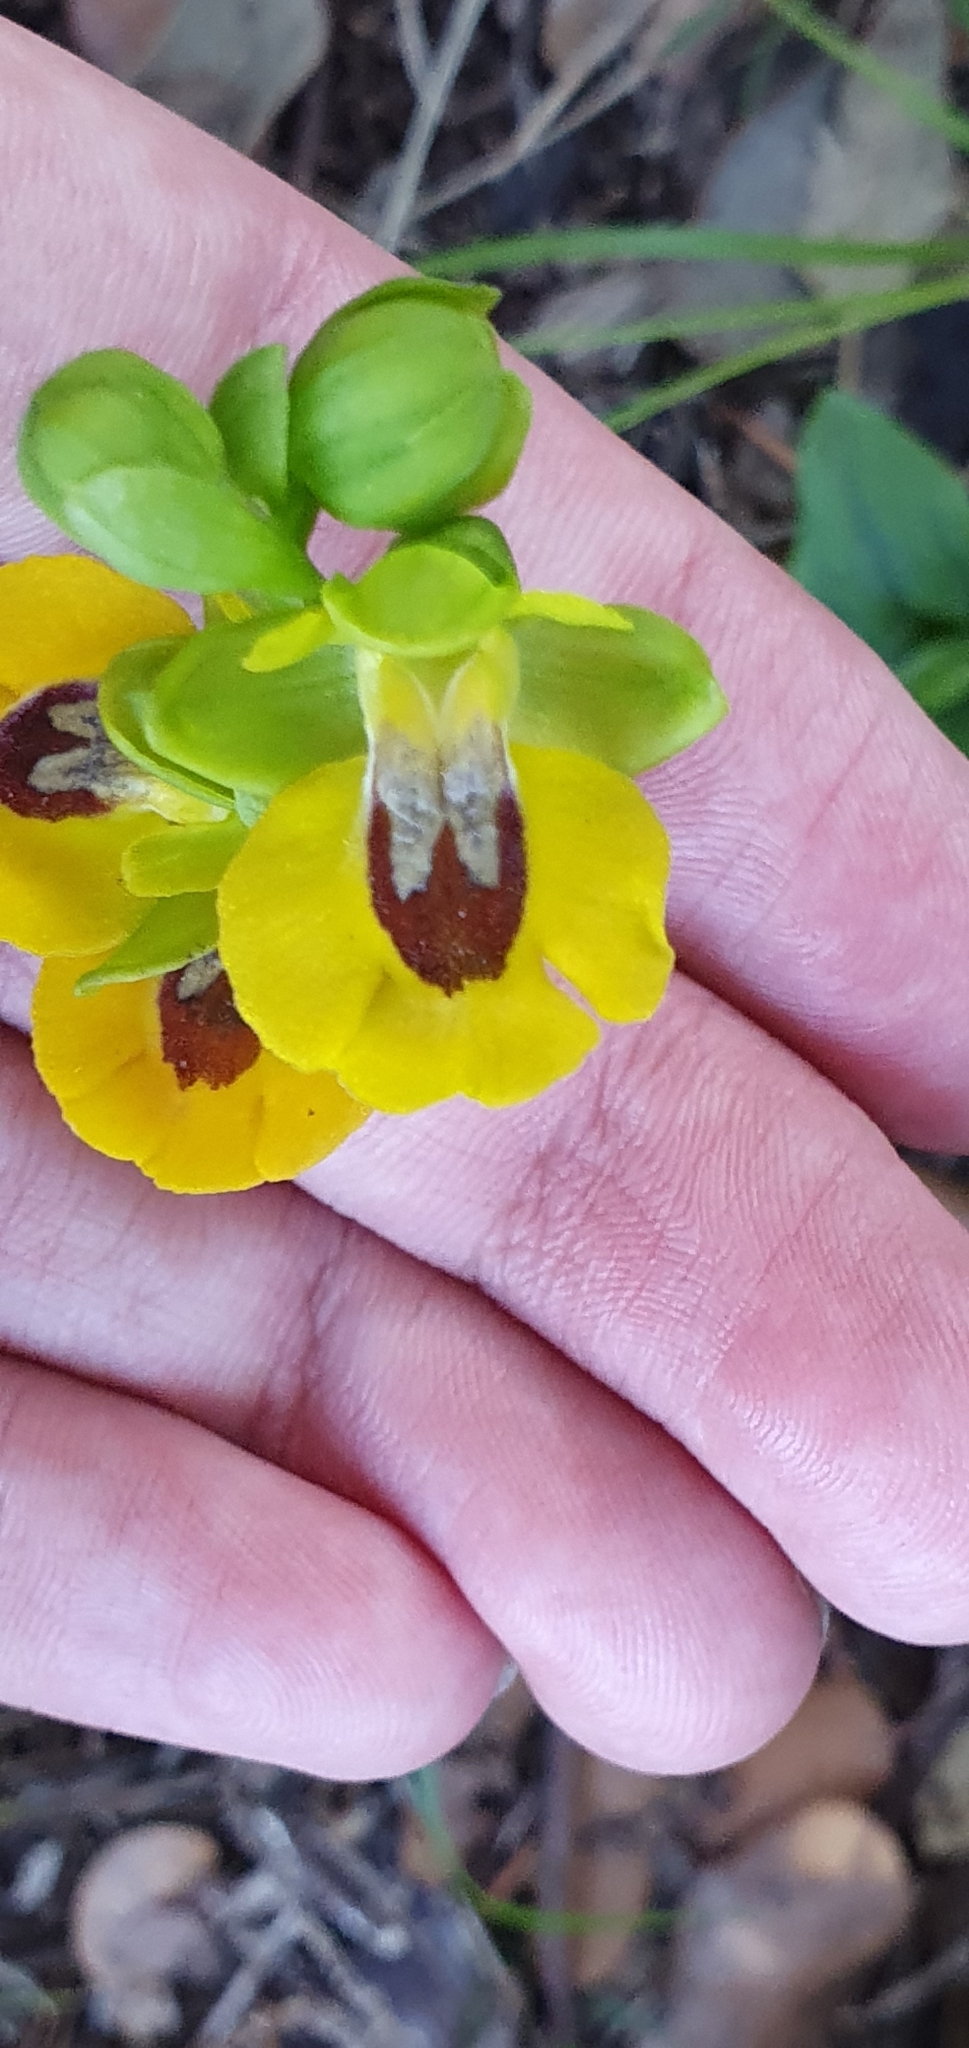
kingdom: Plantae
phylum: Tracheophyta
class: Liliopsida
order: Asparagales
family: Orchidaceae
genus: Ophrys
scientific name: Ophrys lutea
